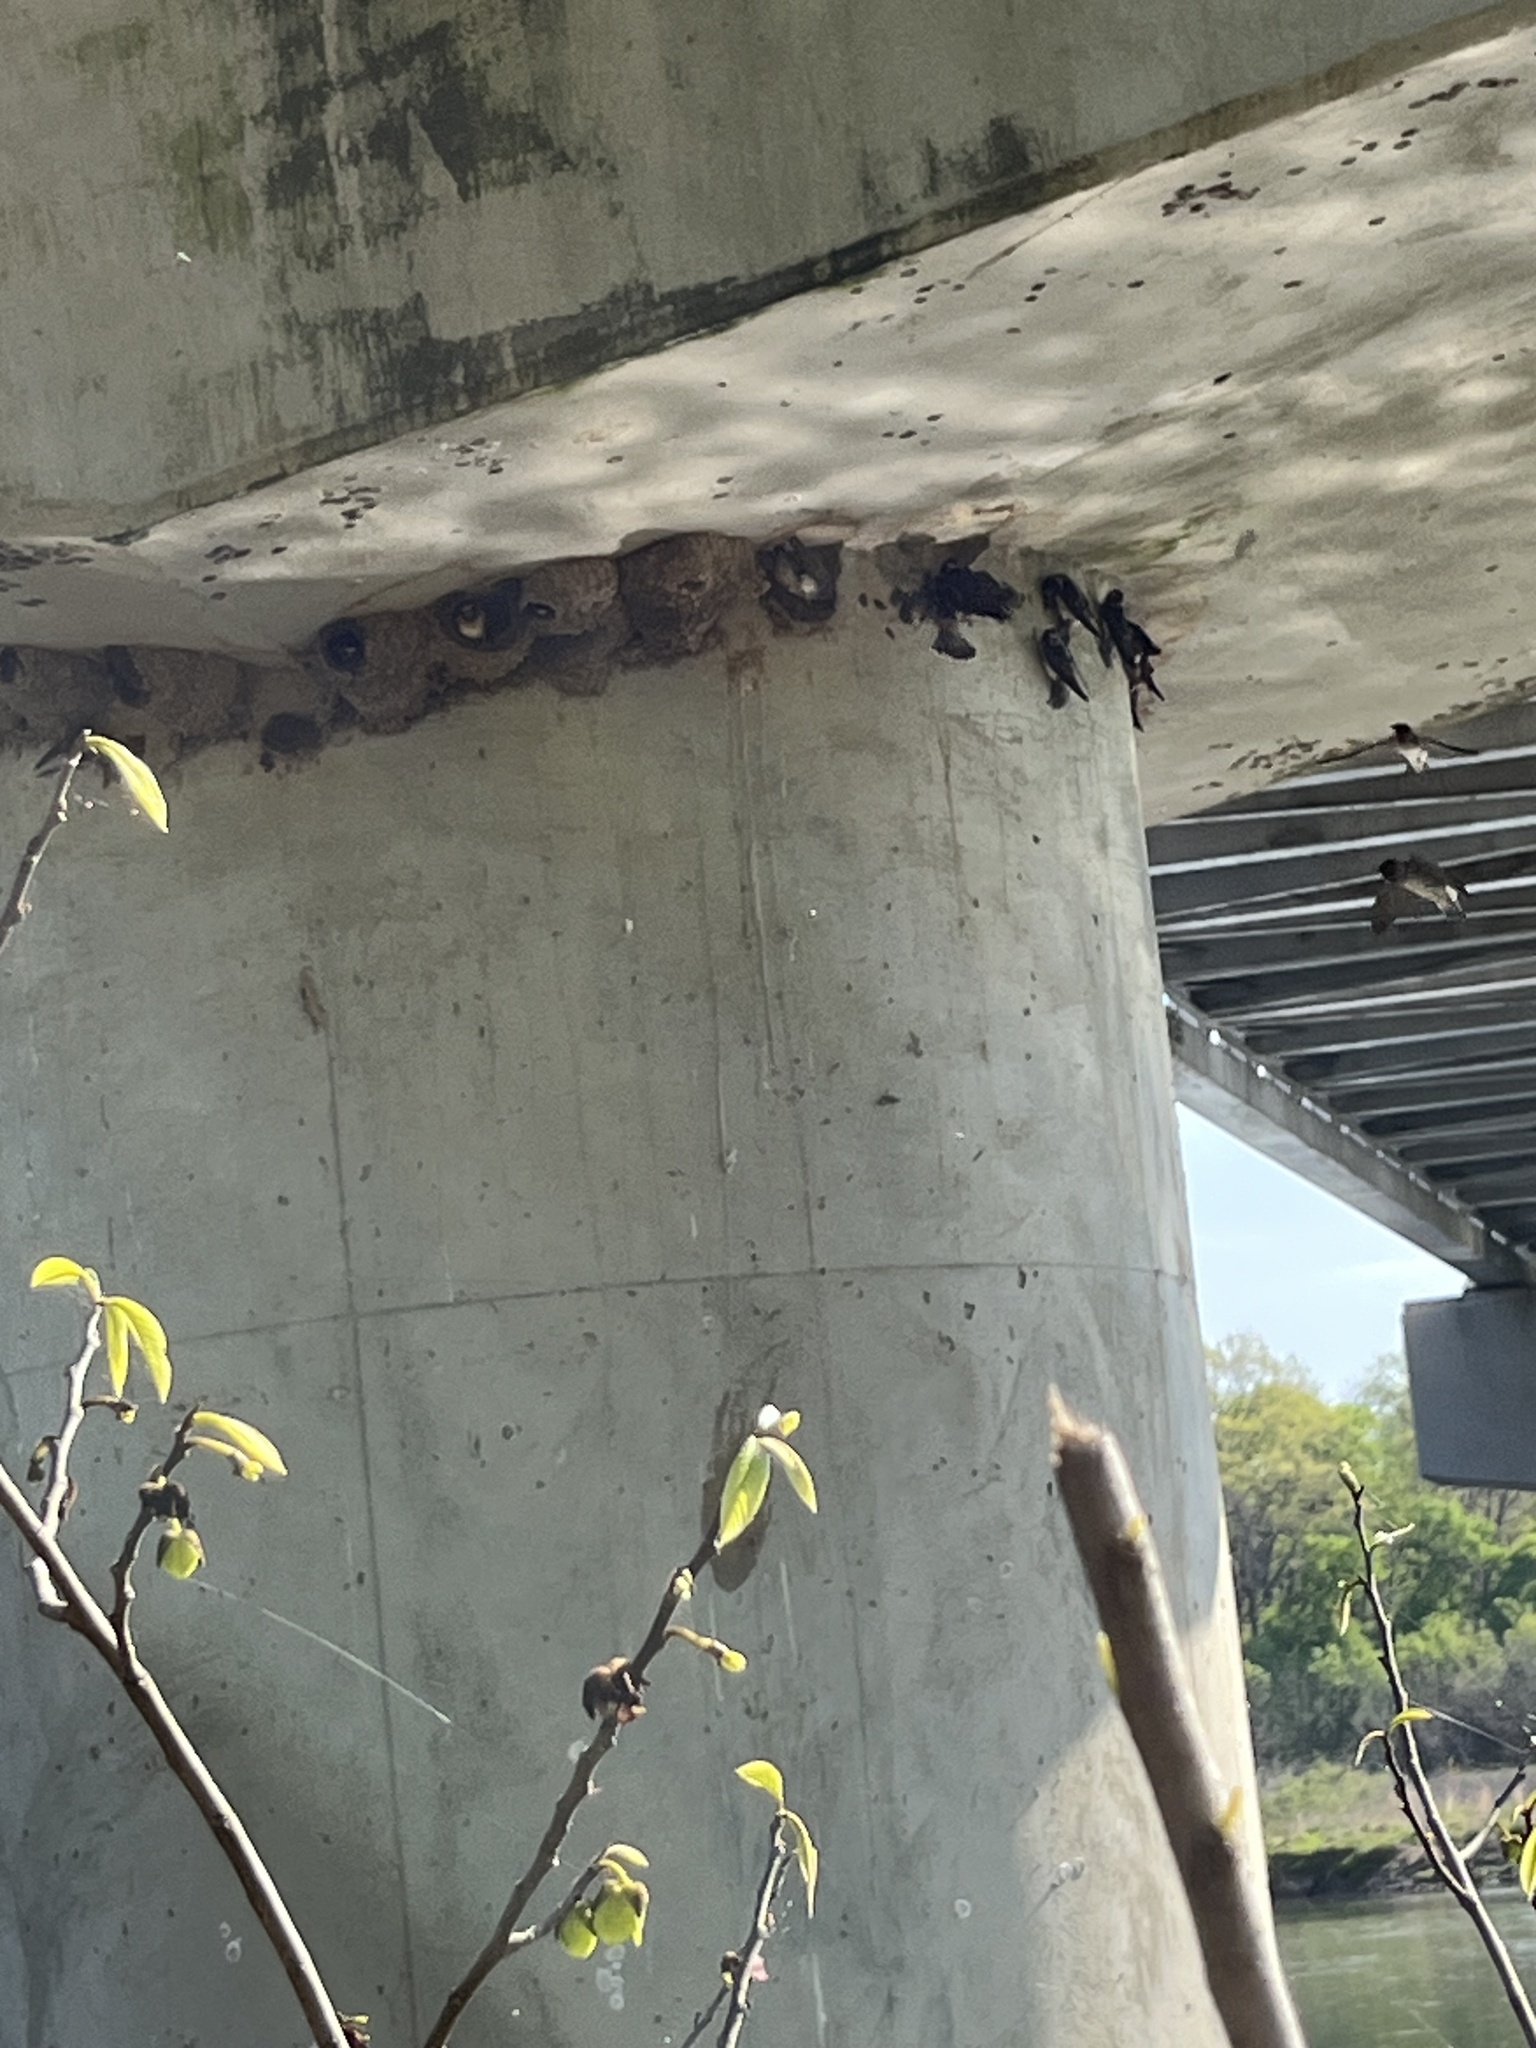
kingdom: Animalia
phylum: Chordata
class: Aves
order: Passeriformes
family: Hirundinidae
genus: Petrochelidon
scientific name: Petrochelidon pyrrhonota
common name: American cliff swallow
